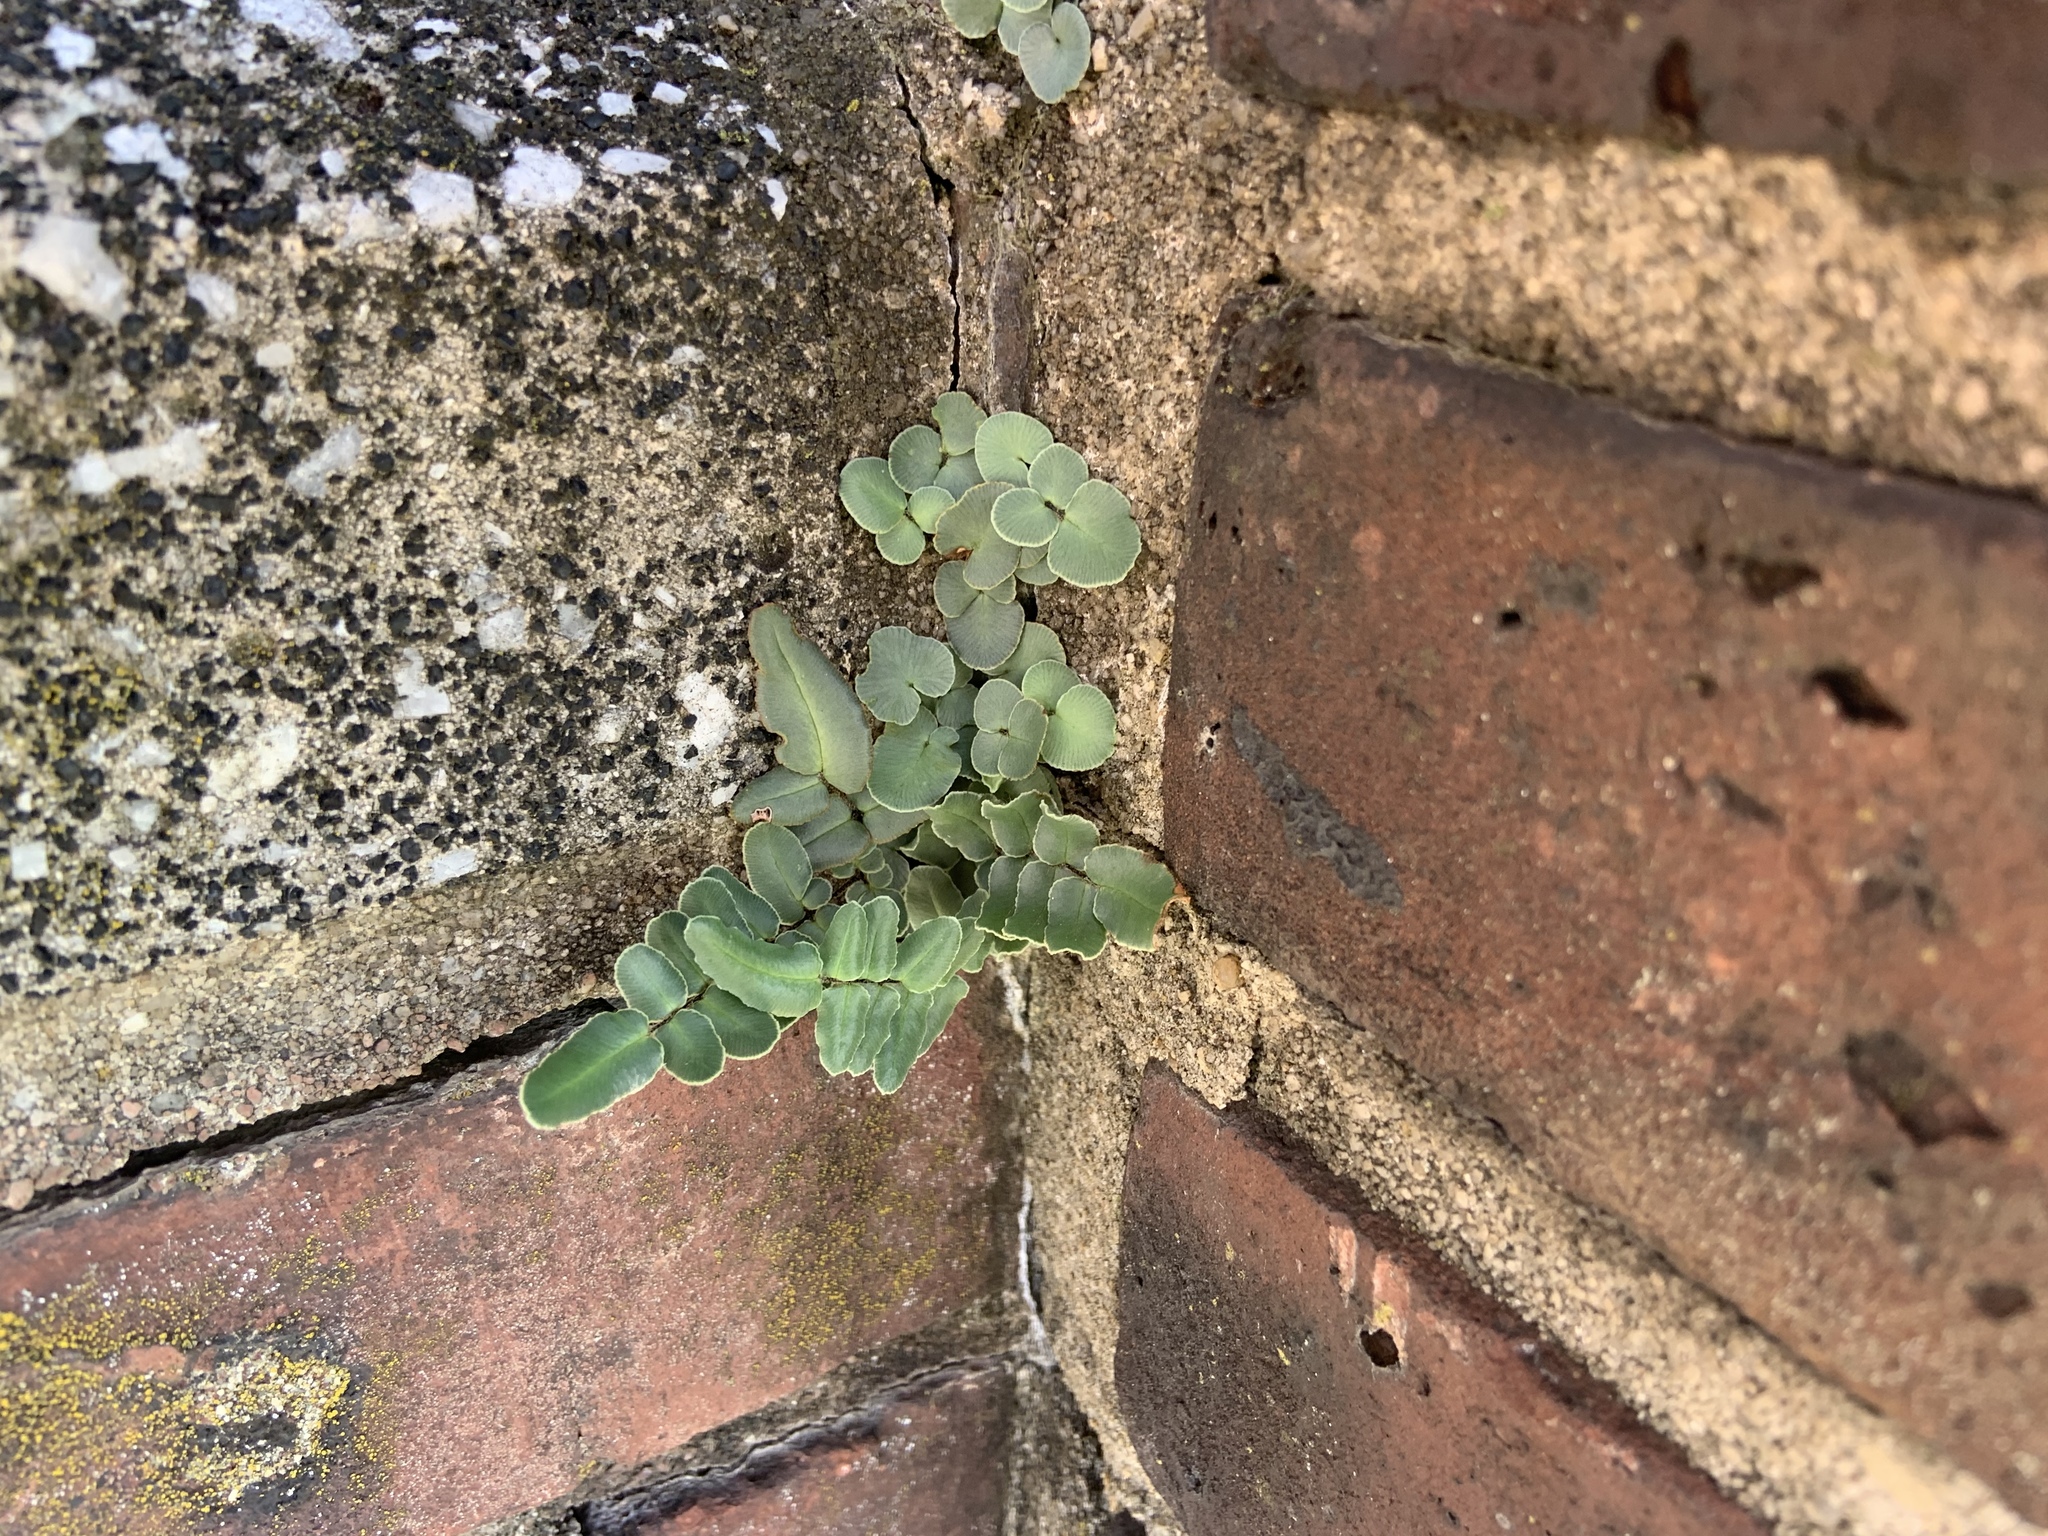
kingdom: Plantae
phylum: Tracheophyta
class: Polypodiopsida
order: Polypodiales
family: Pteridaceae
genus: Pellaea
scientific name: Pellaea atropurpurea
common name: Hairy cliffbrake
